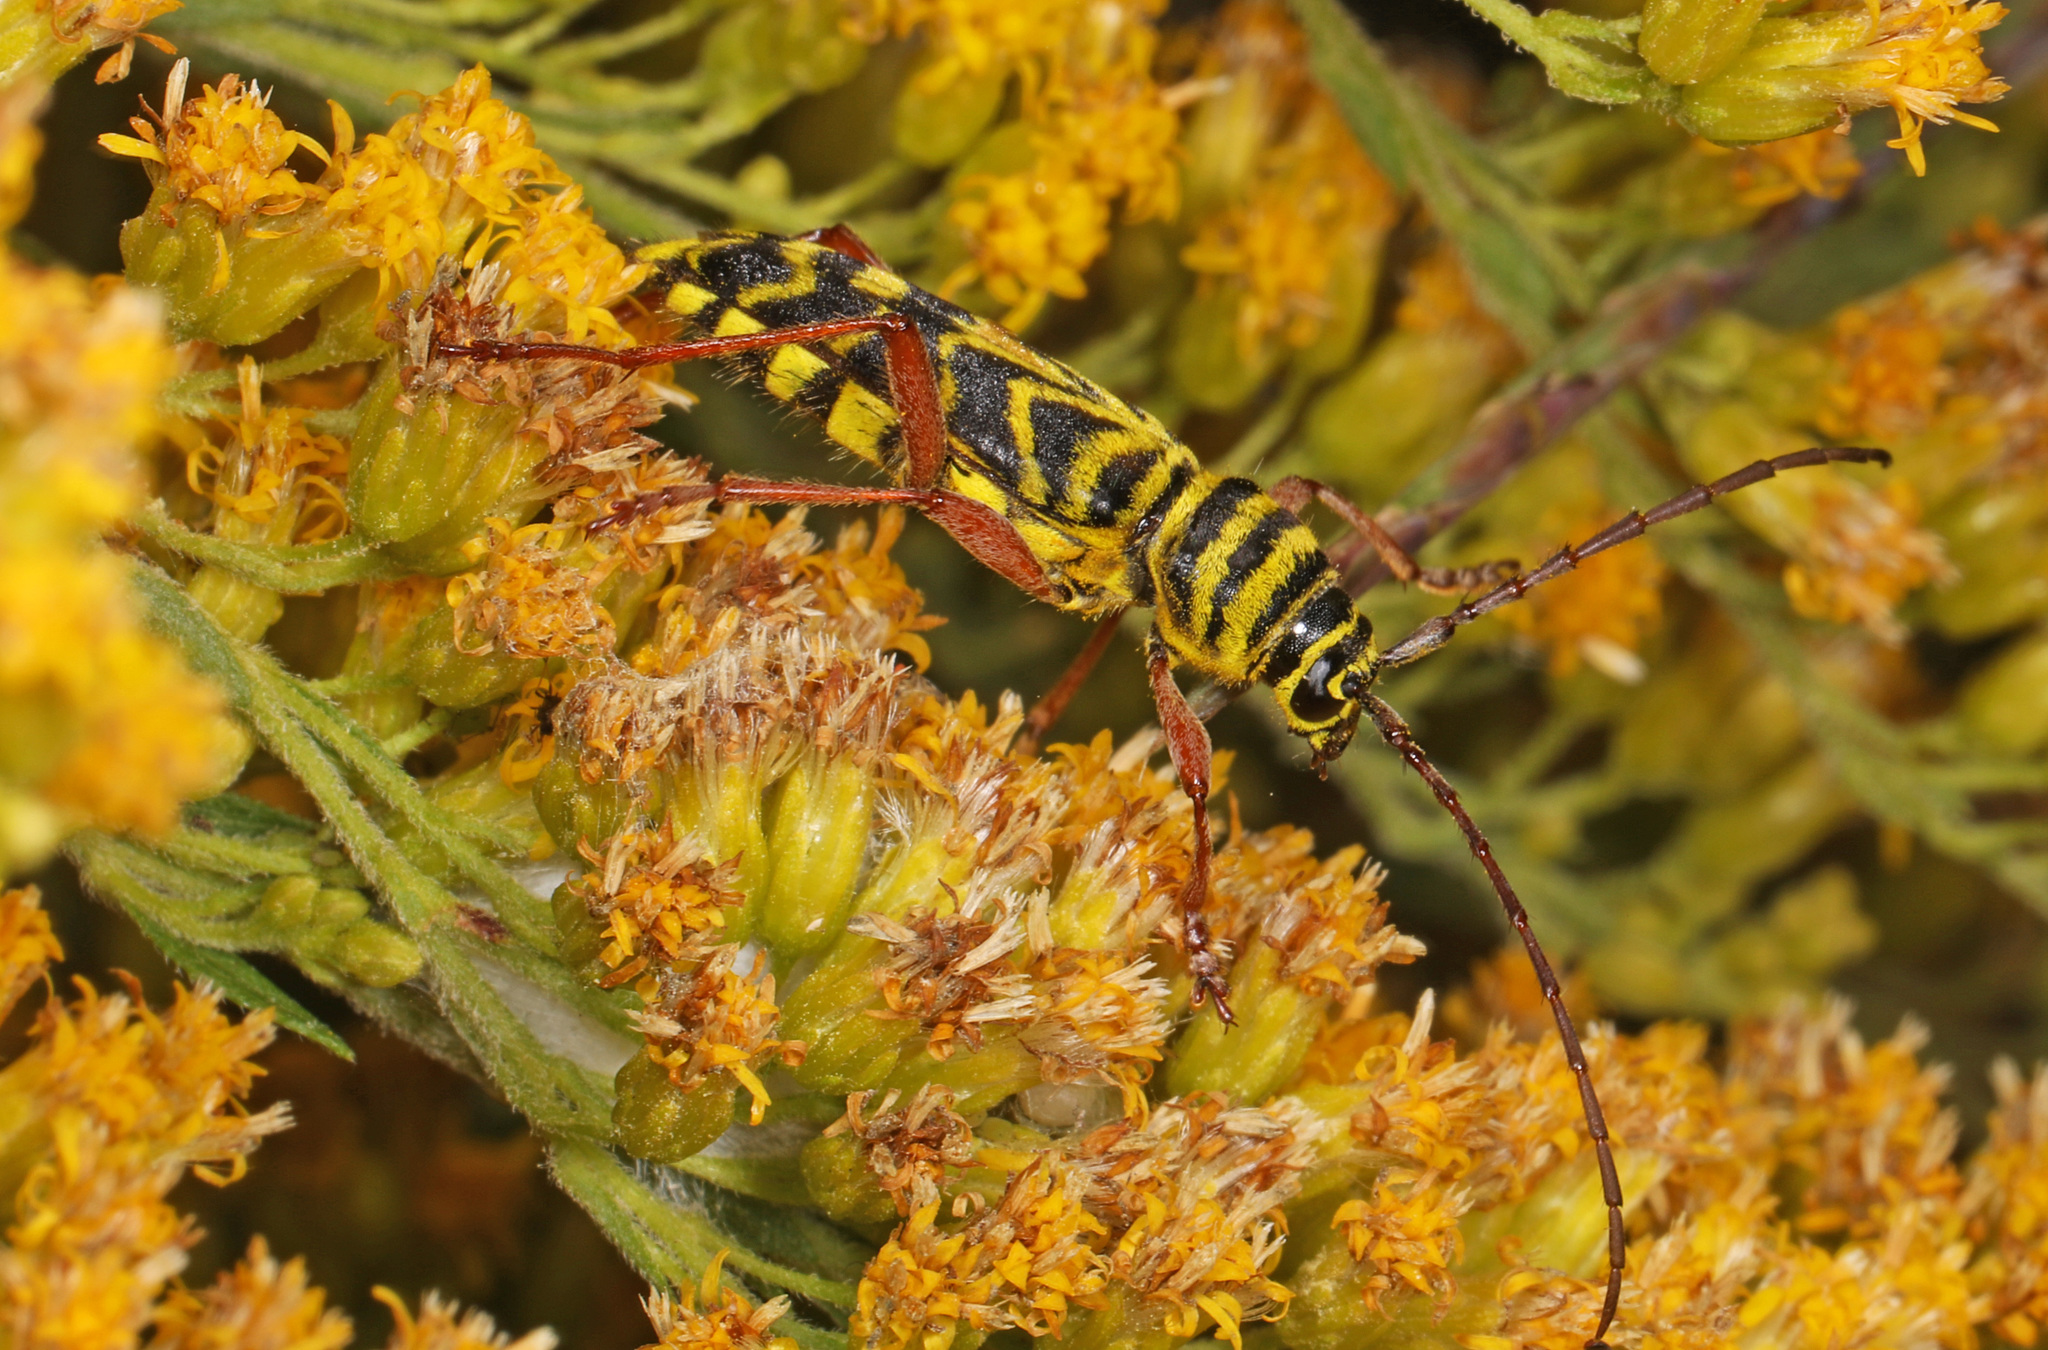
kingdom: Animalia
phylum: Arthropoda
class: Insecta
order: Coleoptera
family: Cerambycidae
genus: Megacyllene
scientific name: Megacyllene robiniae
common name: Locust borer
